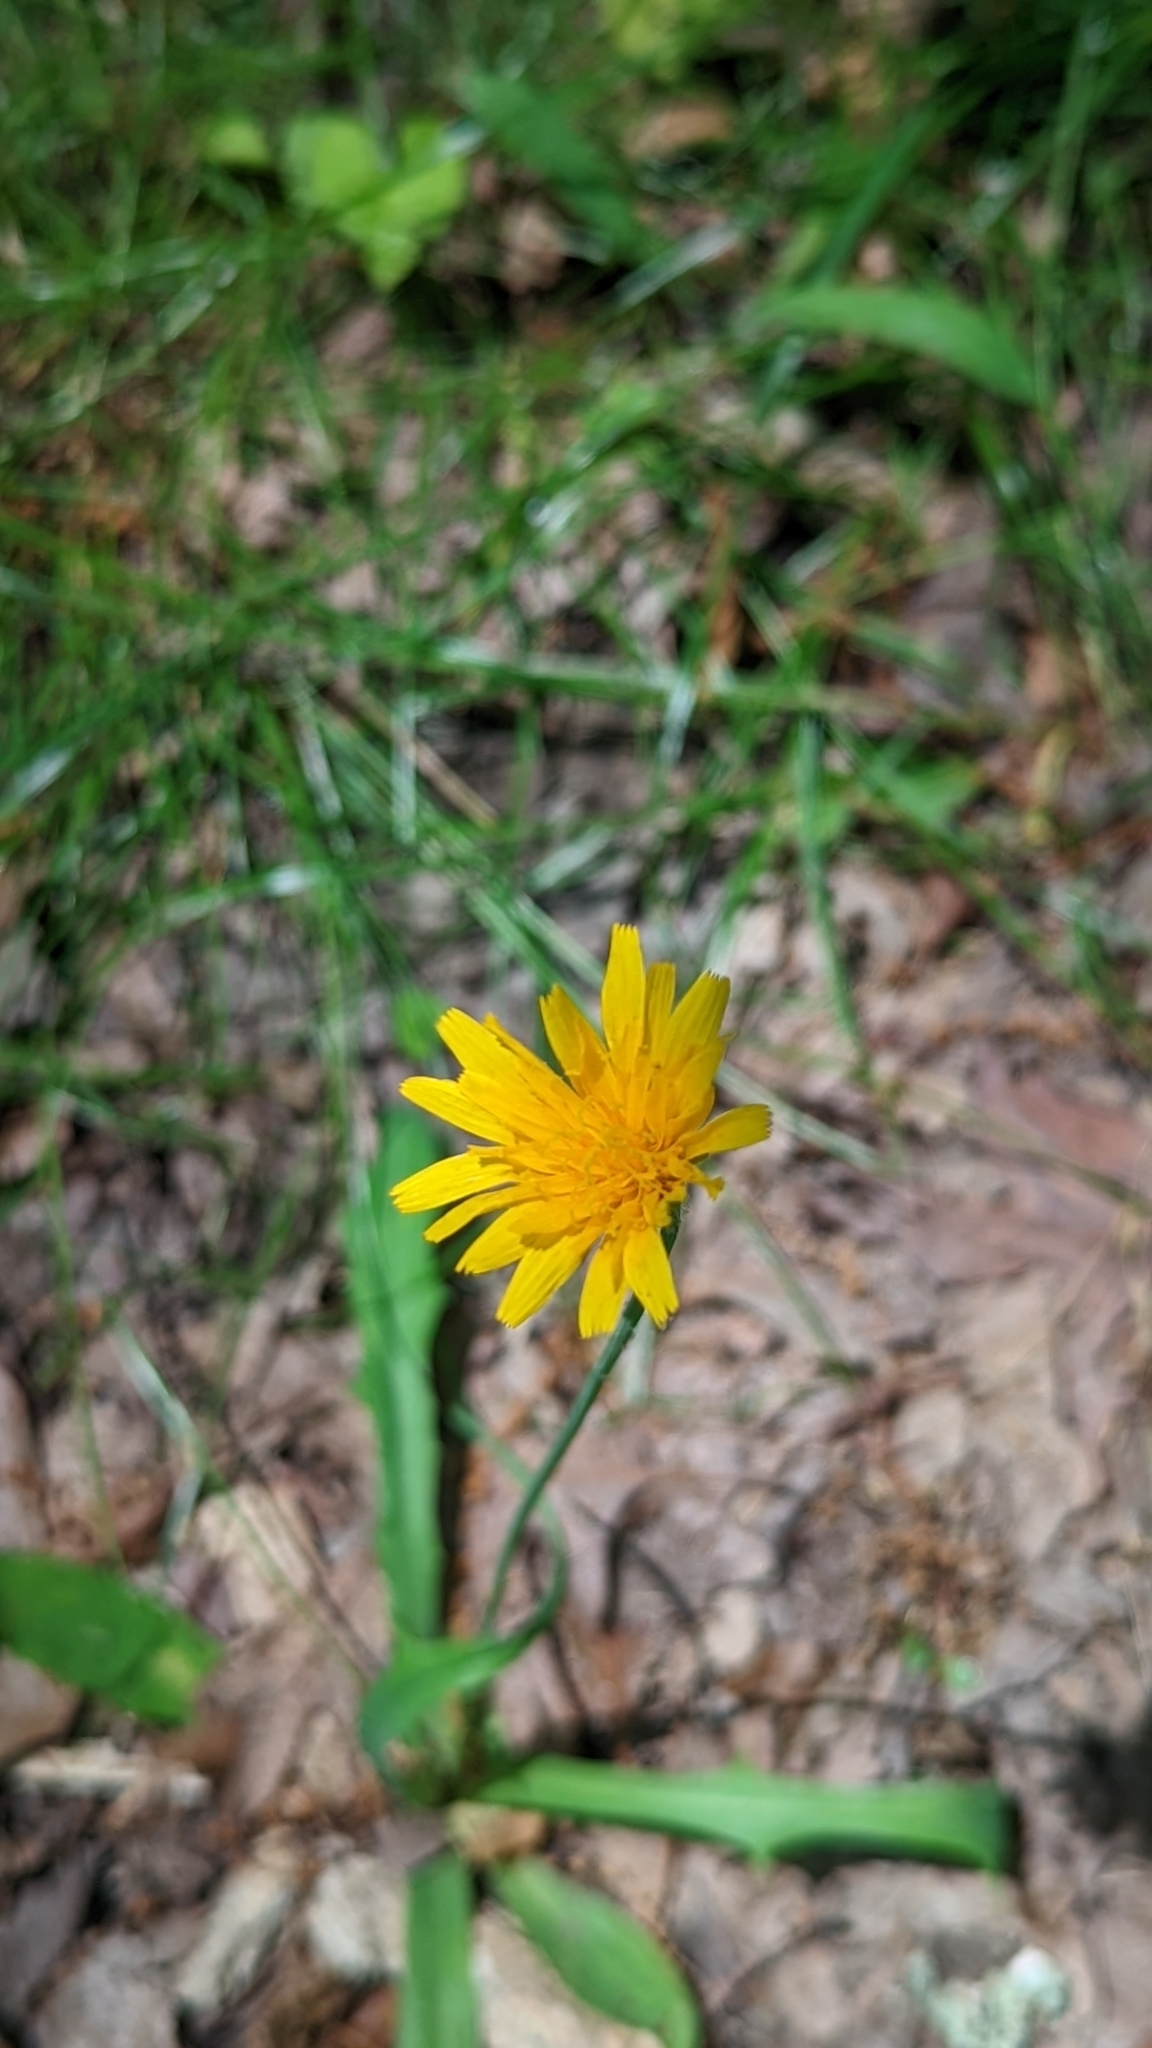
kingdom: Plantae
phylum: Tracheophyta
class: Magnoliopsida
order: Asterales
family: Asteraceae
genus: Krigia
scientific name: Krigia dandelion
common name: Colonial dwarf-dandelion
